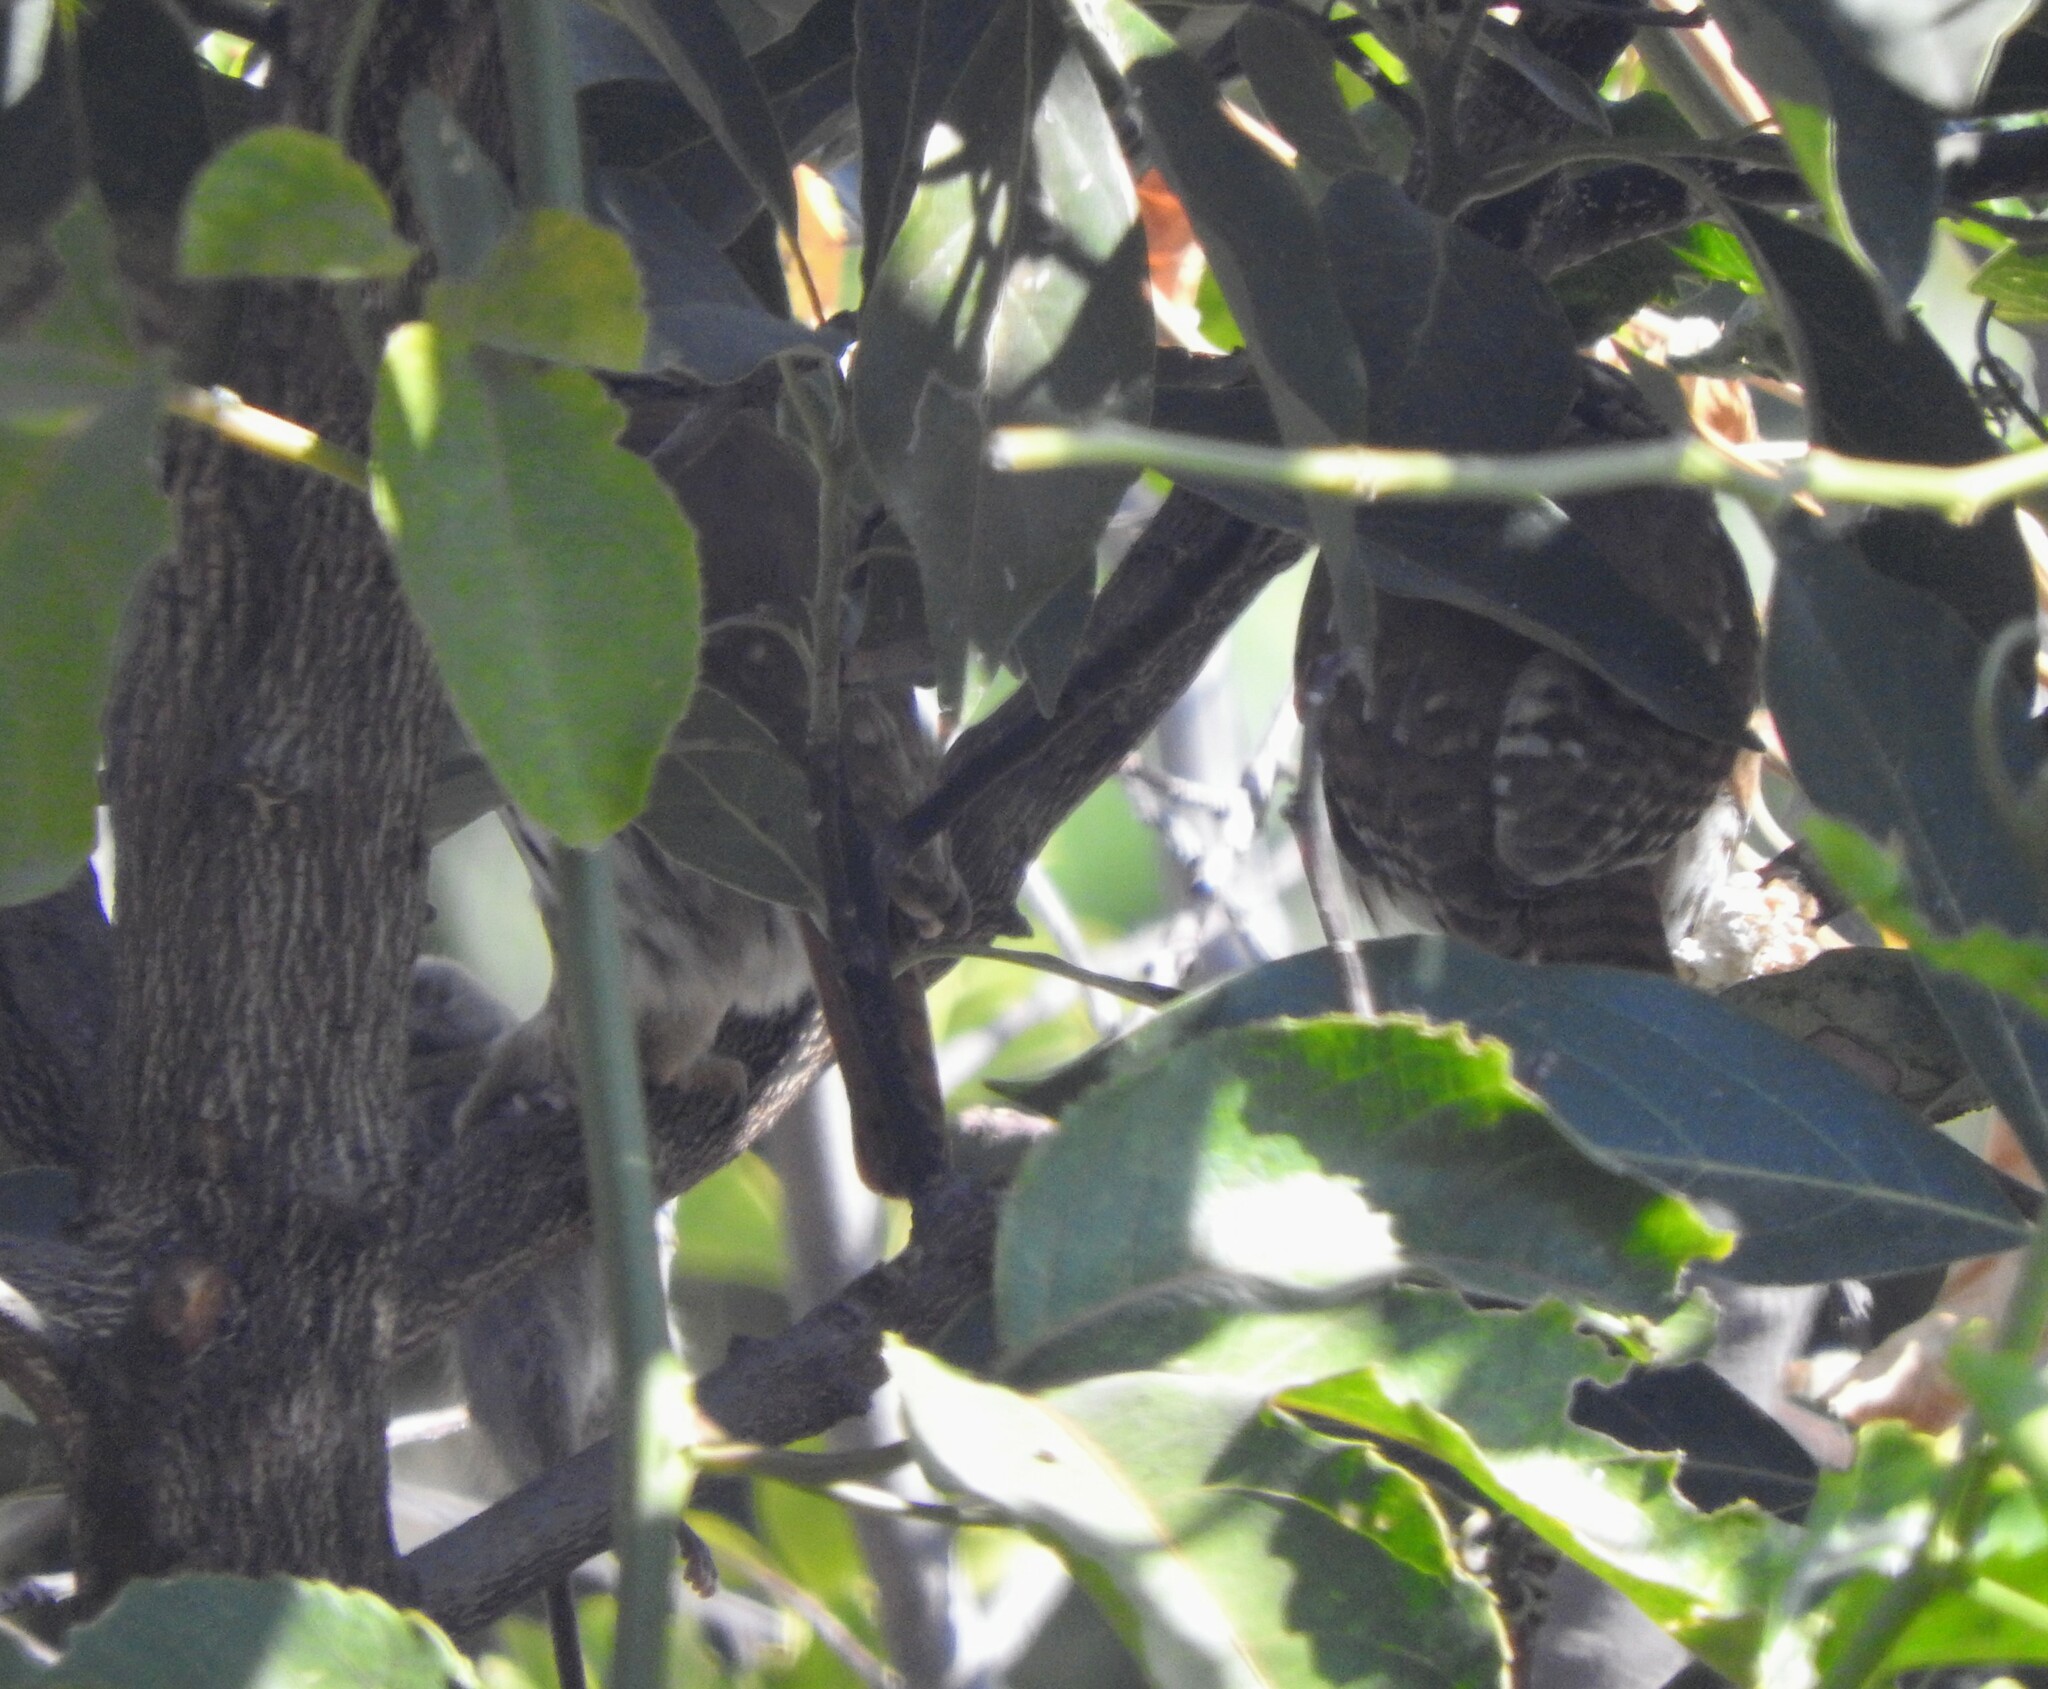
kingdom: Animalia
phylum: Chordata
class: Aves
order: Strigiformes
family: Strigidae
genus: Glaucidium
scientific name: Glaucidium brasilianum
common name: Ferruginous pygmy-owl
